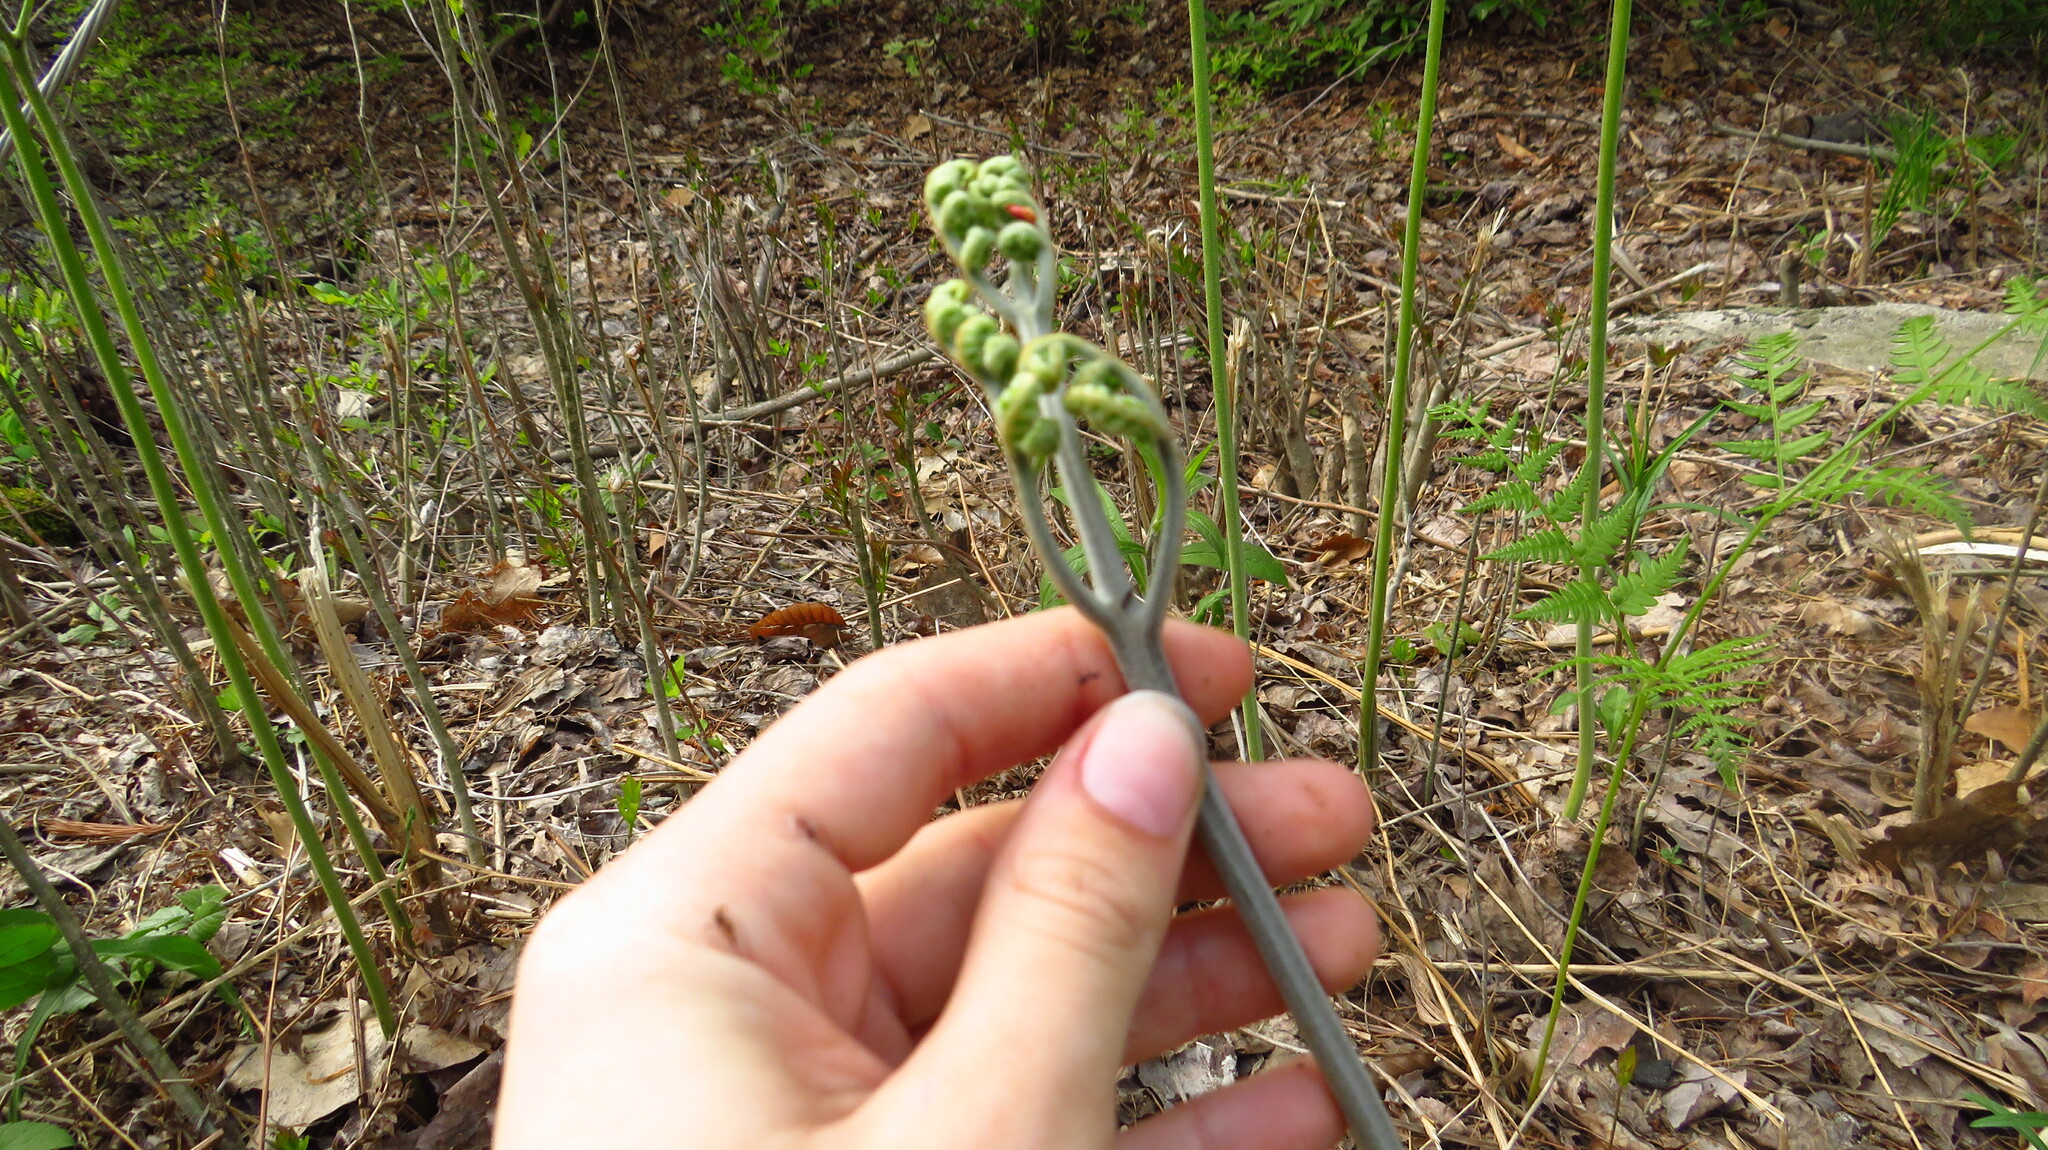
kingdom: Plantae
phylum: Tracheophyta
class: Polypodiopsida
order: Polypodiales
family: Dennstaedtiaceae
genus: Pteridium
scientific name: Pteridium aquilinum
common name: Bracken
